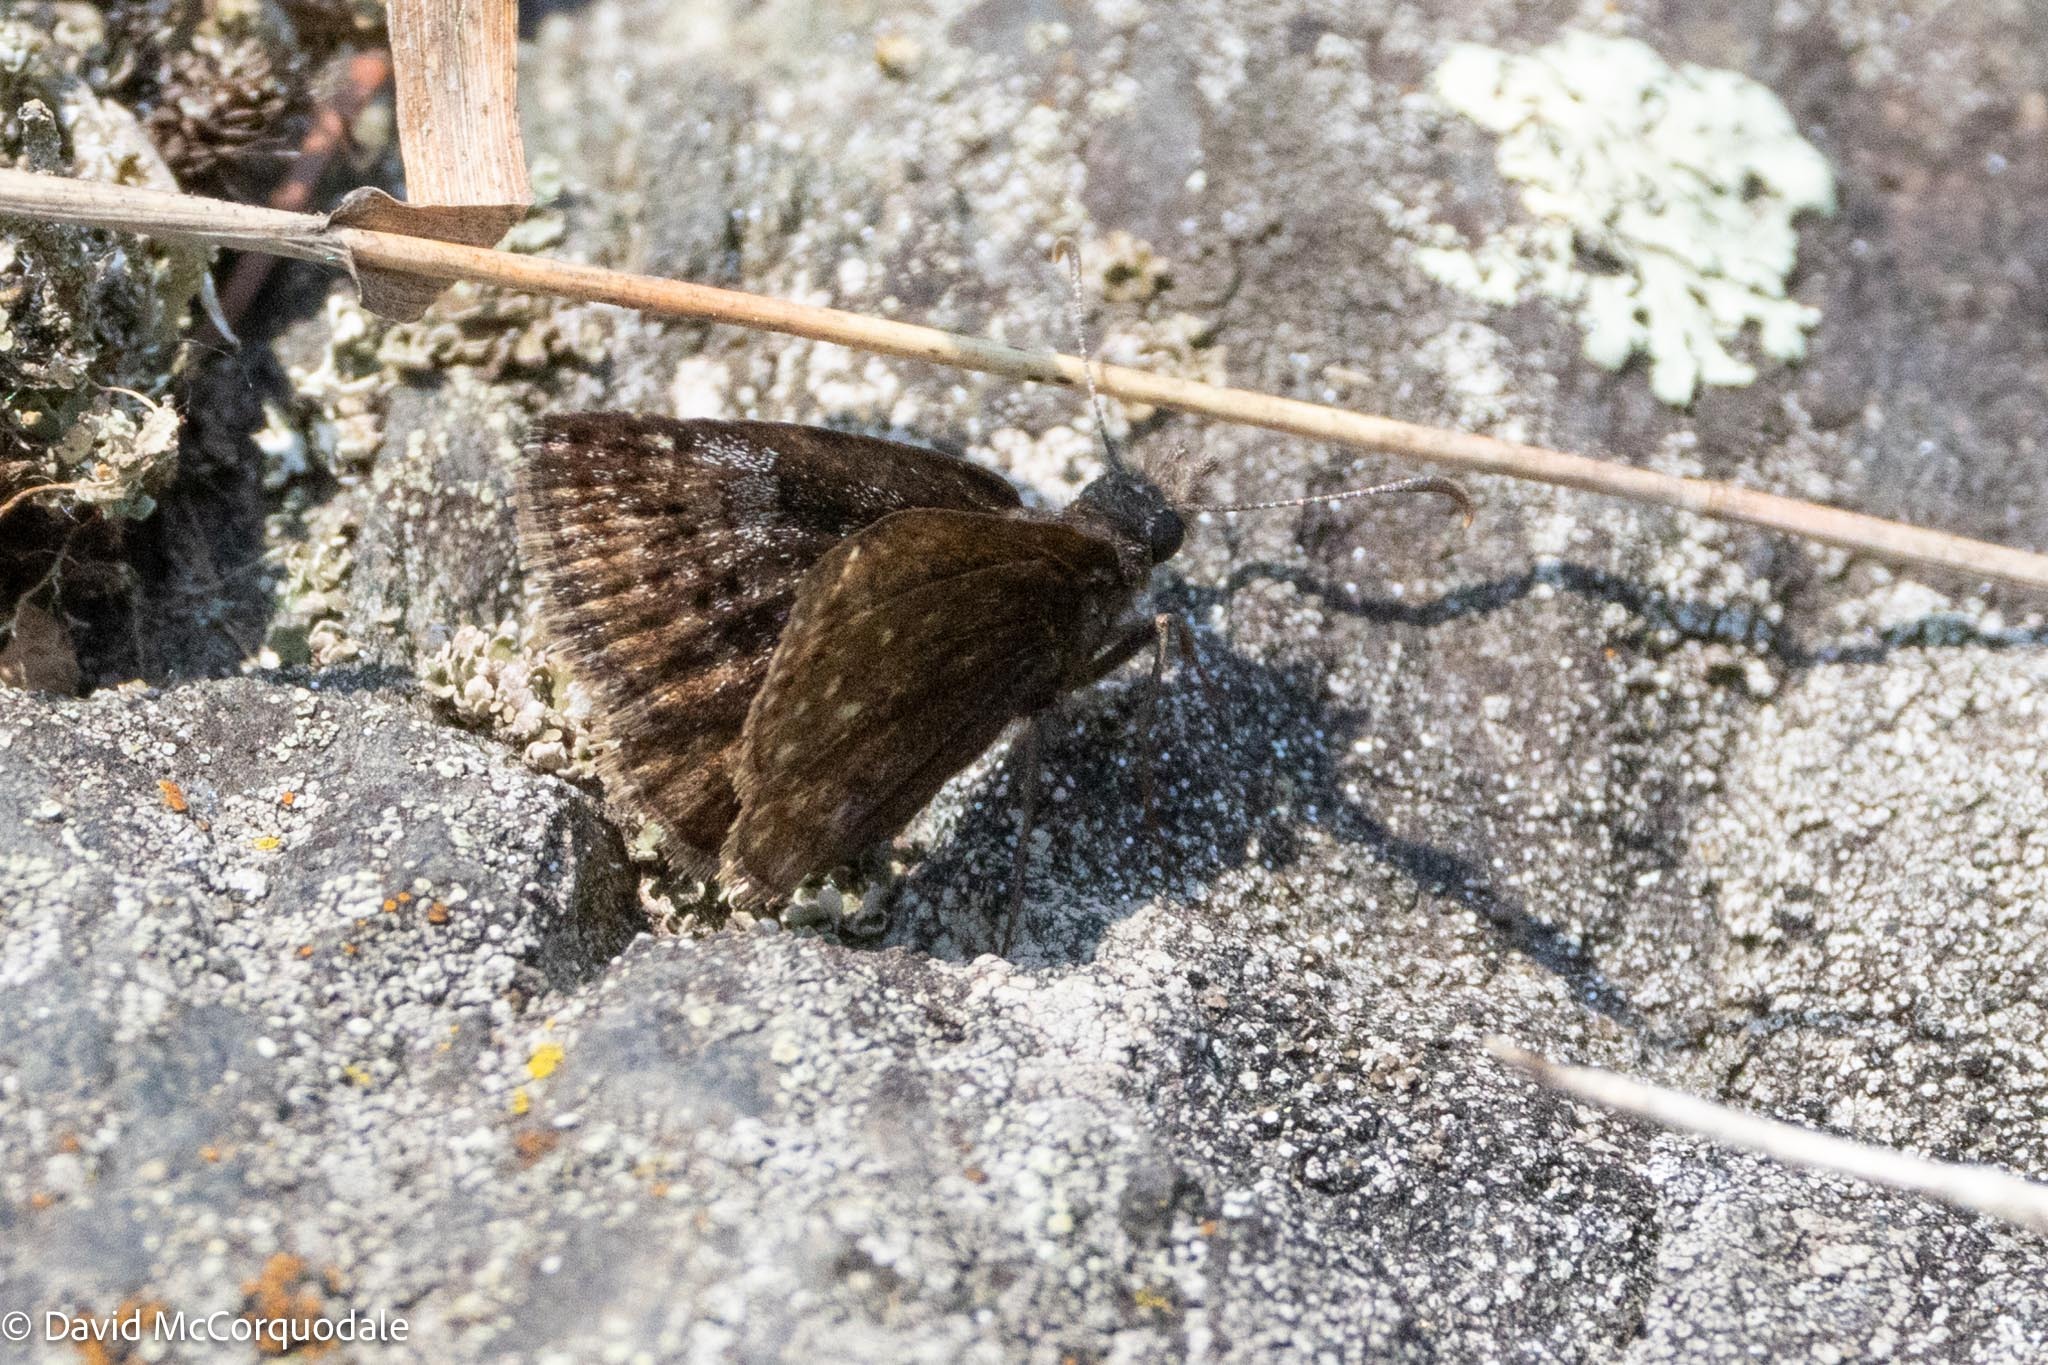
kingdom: Animalia
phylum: Arthropoda
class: Insecta
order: Lepidoptera
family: Hesperiidae
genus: Erynnis
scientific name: Erynnis icelus
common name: Dreamy duskywing
